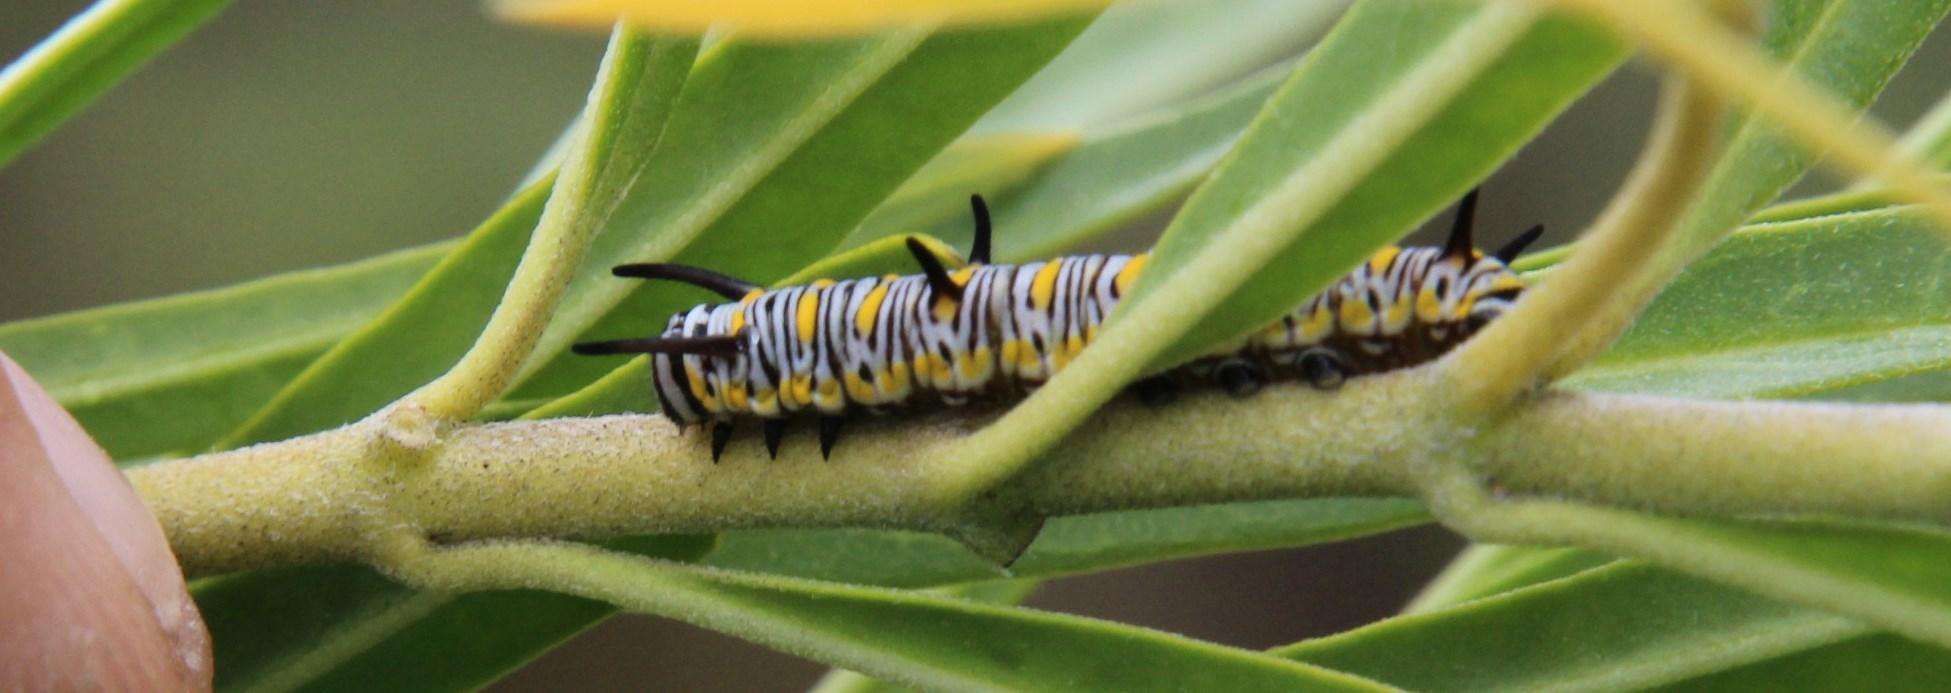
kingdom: Plantae
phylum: Tracheophyta
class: Magnoliopsida
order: Gentianales
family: Apocynaceae
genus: Gomphocarpus
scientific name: Gomphocarpus fruticosus
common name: Milkweed
